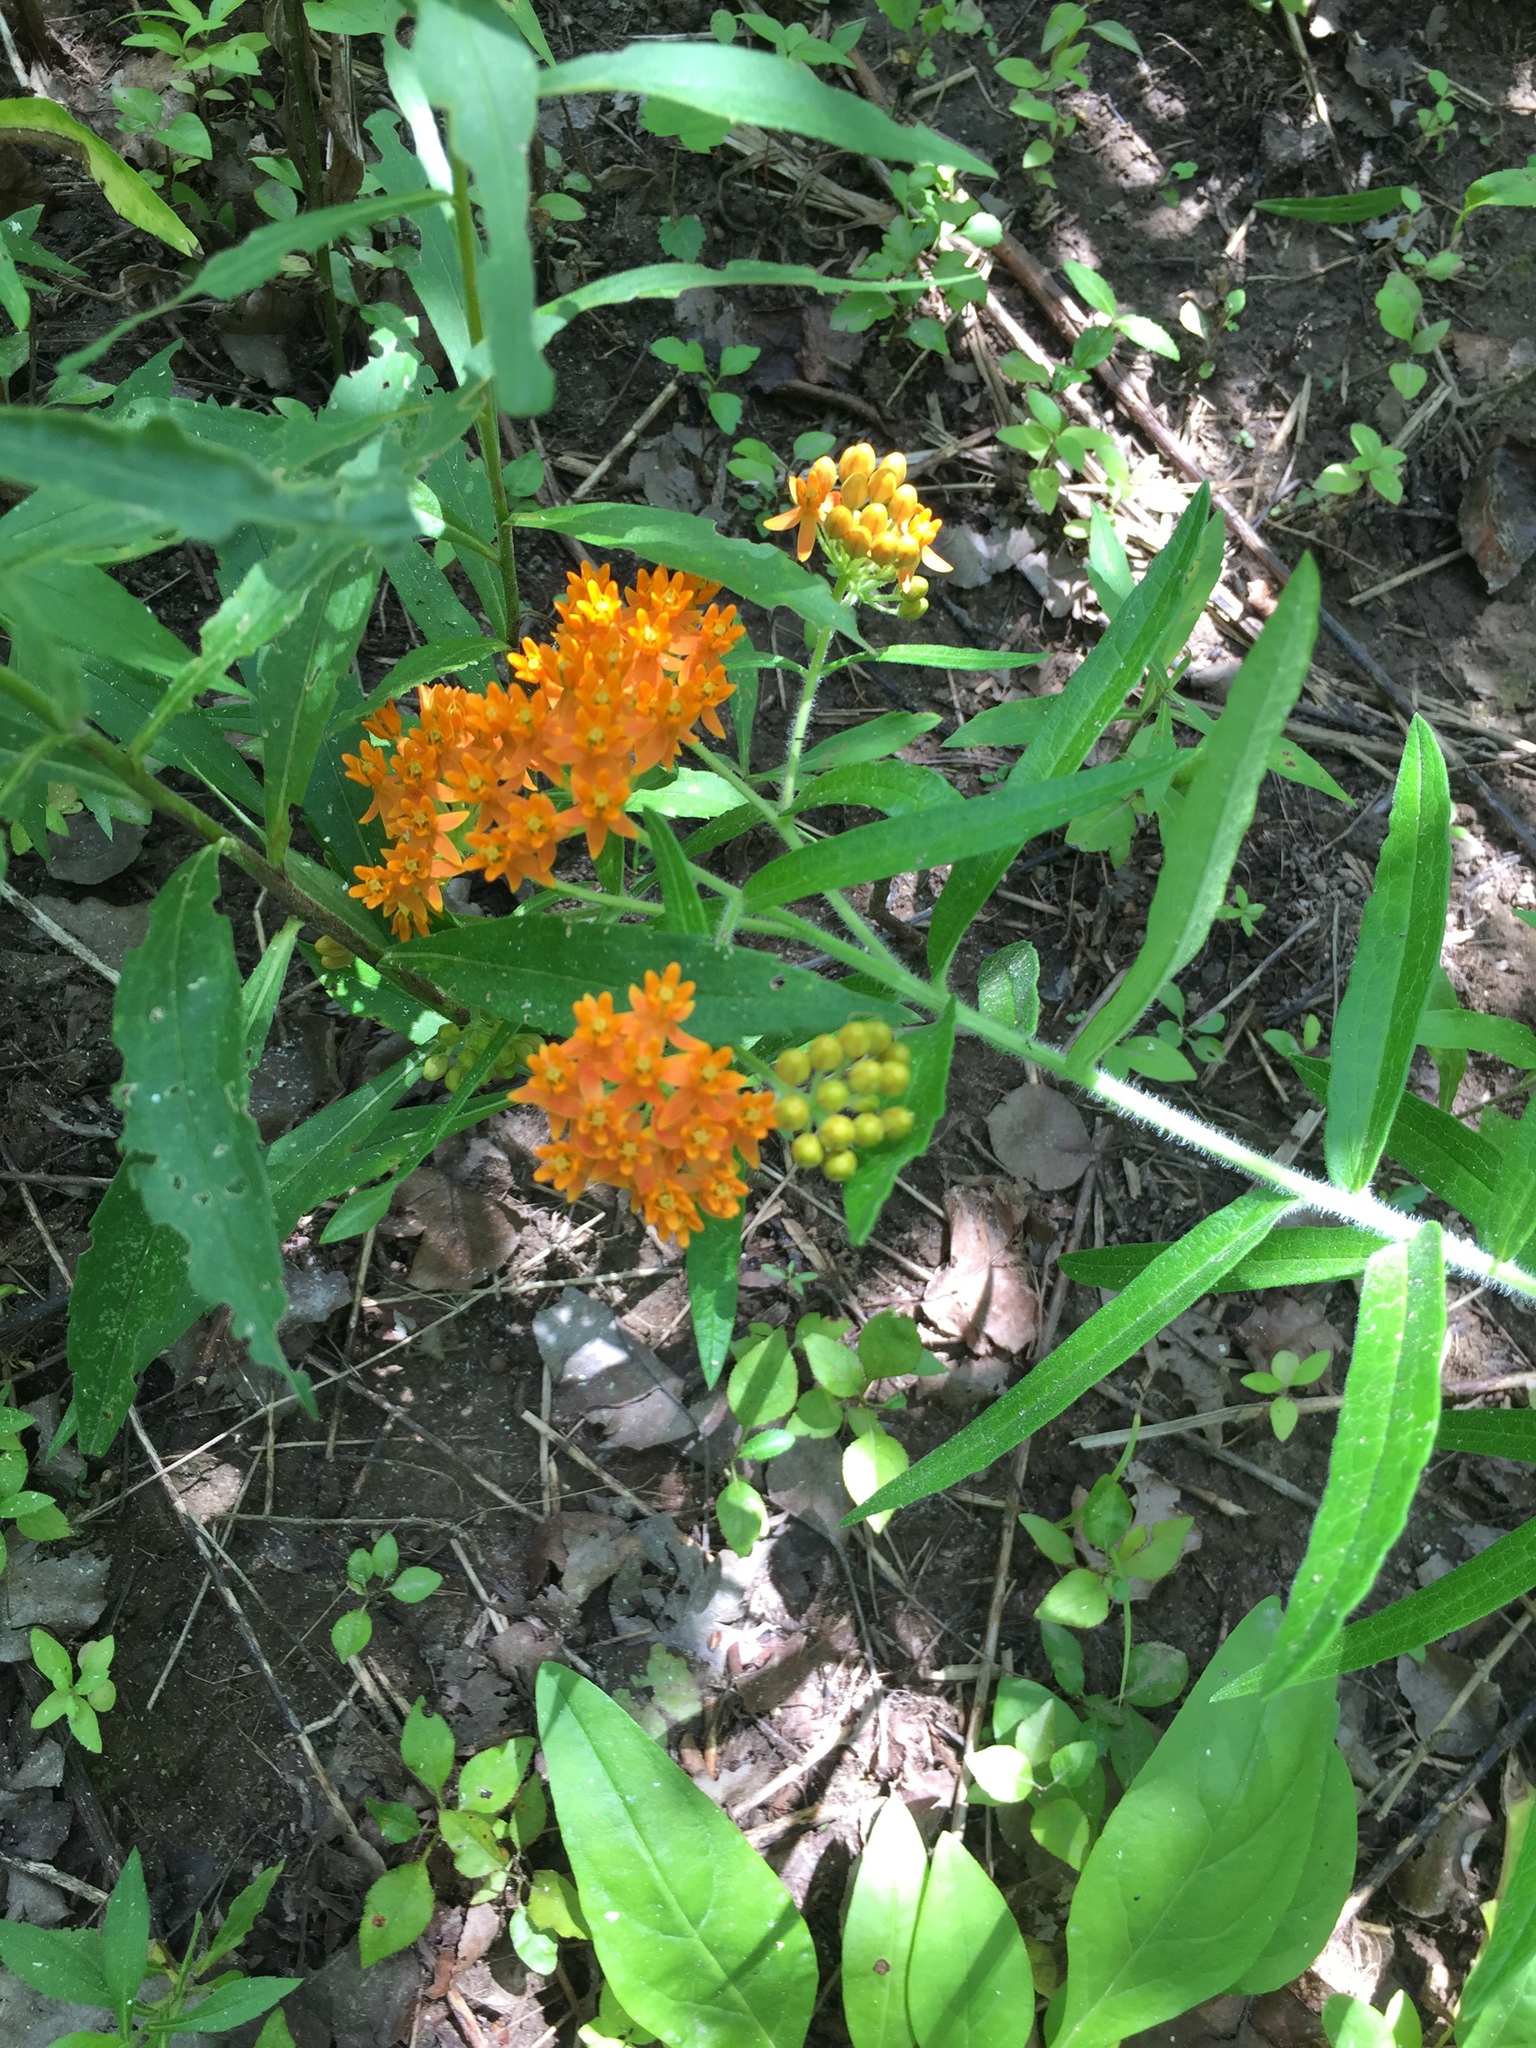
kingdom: Plantae
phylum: Tracheophyta
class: Magnoliopsida
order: Gentianales
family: Apocynaceae
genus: Asclepias
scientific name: Asclepias tuberosa
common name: Butterfly milkweed
